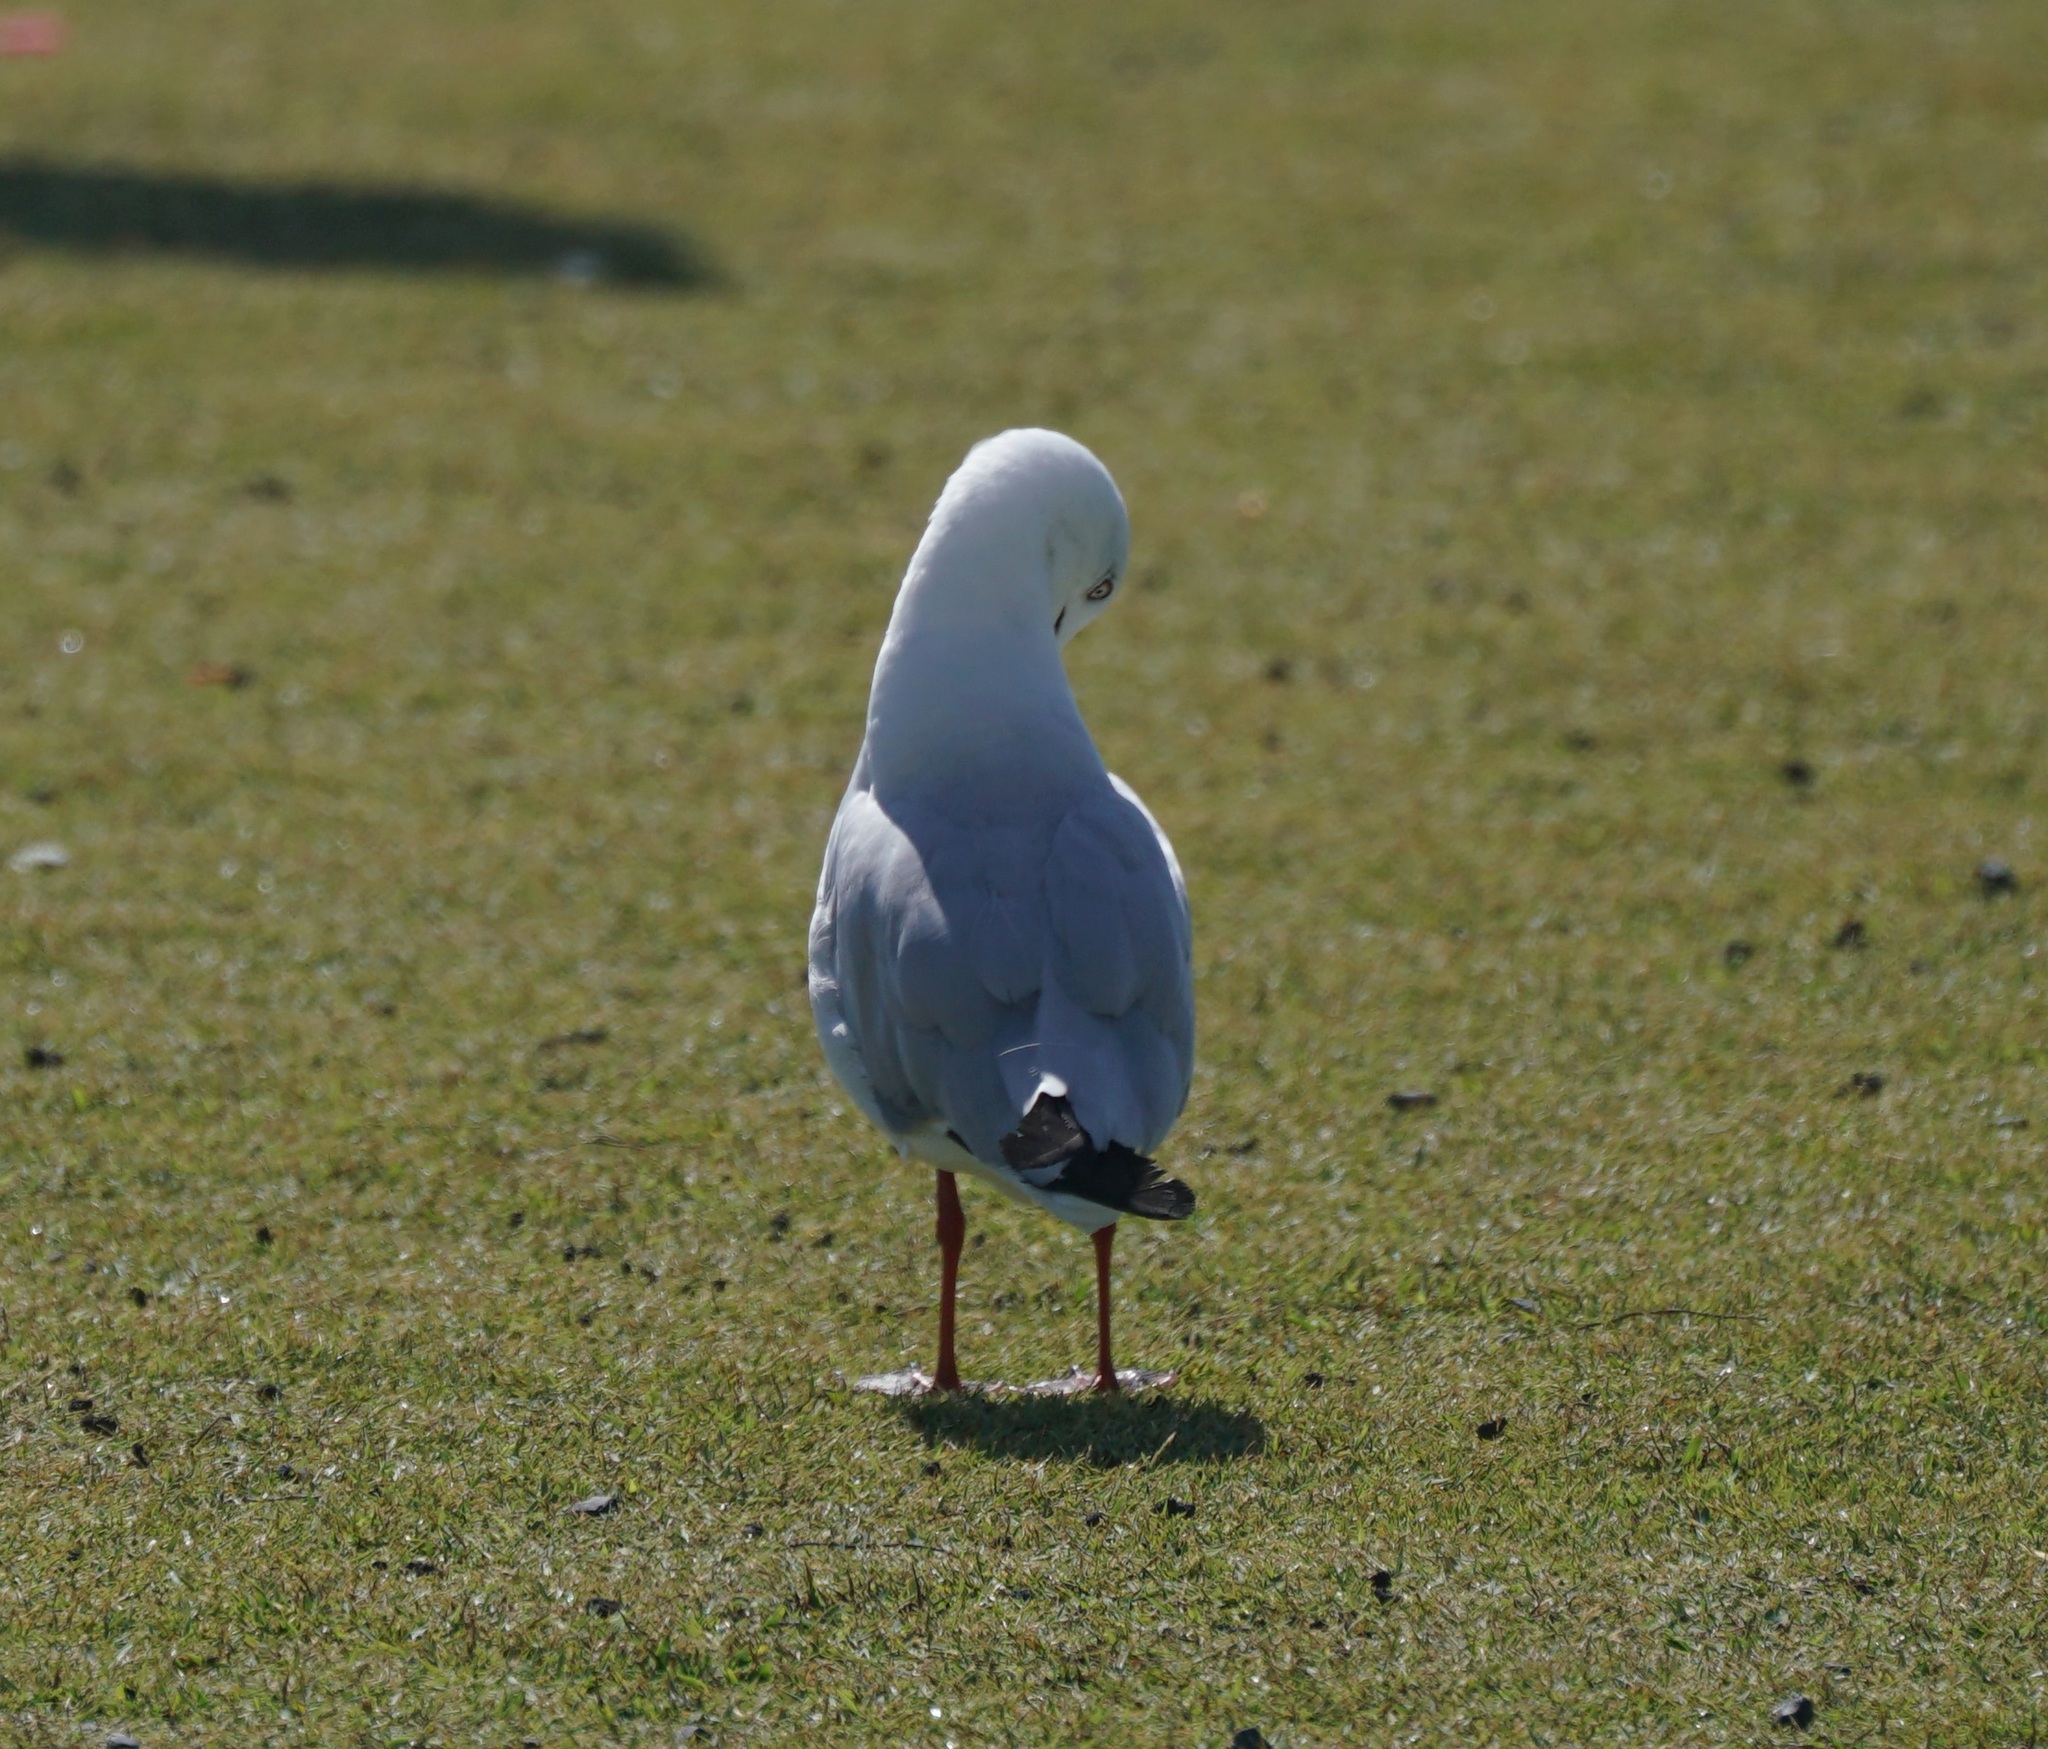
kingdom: Animalia
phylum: Chordata
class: Aves
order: Charadriiformes
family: Laridae
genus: Chroicocephalus
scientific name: Chroicocephalus novaehollandiae
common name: Silver gull
